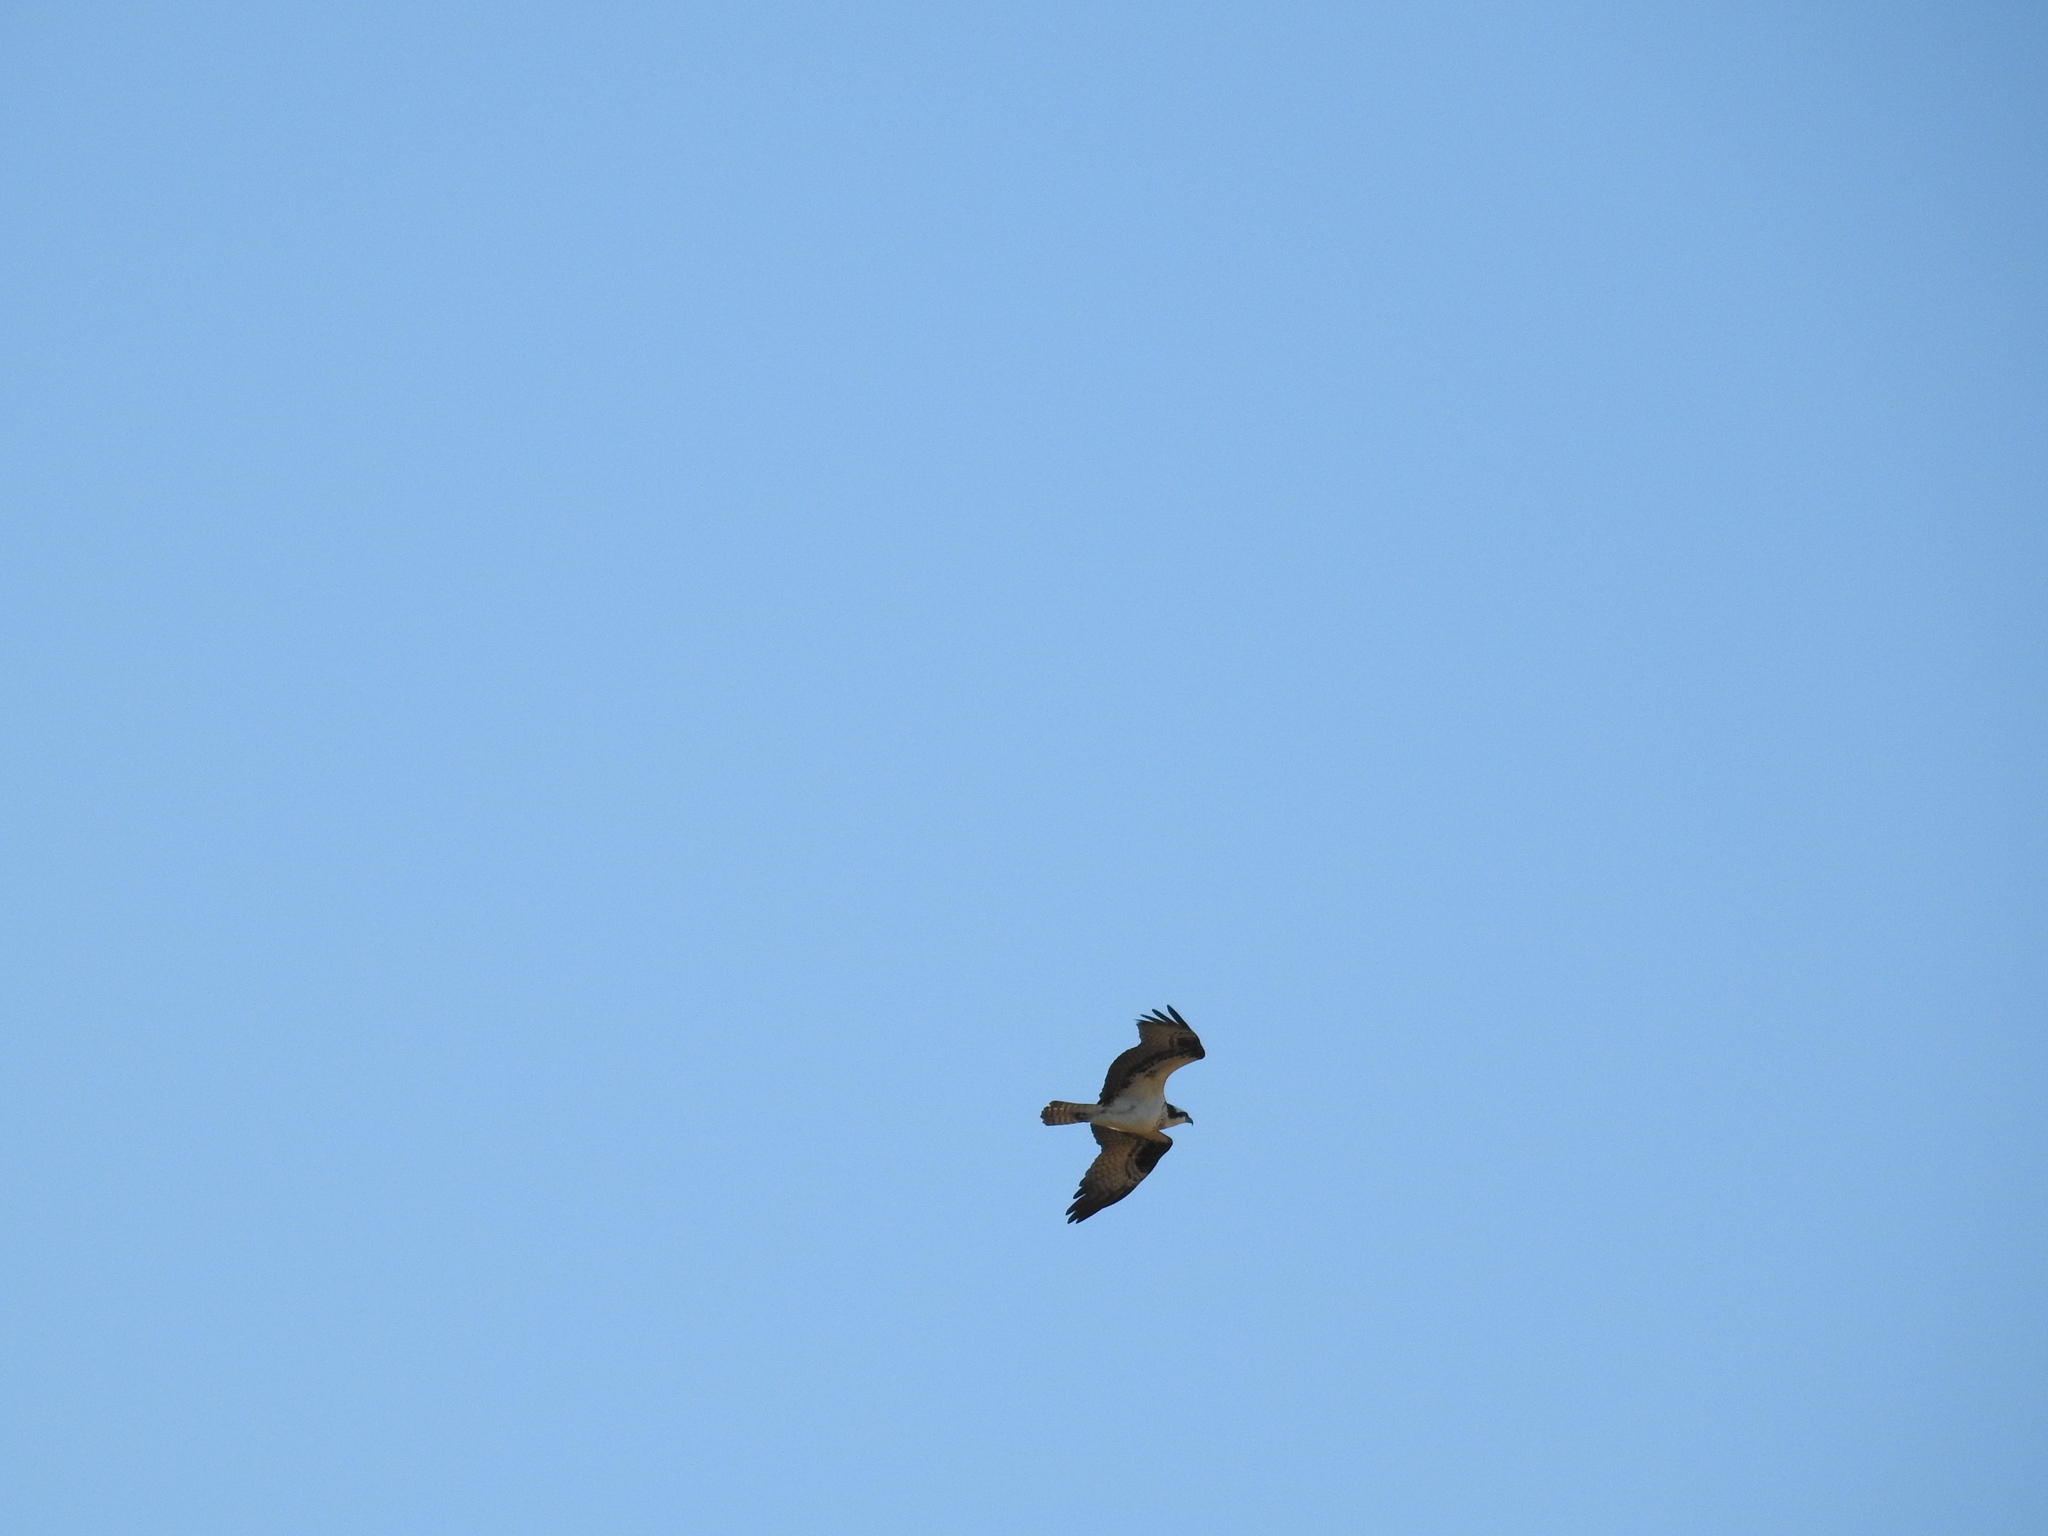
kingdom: Animalia
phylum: Chordata
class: Aves
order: Accipitriformes
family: Pandionidae
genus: Pandion
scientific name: Pandion haliaetus
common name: Osprey
